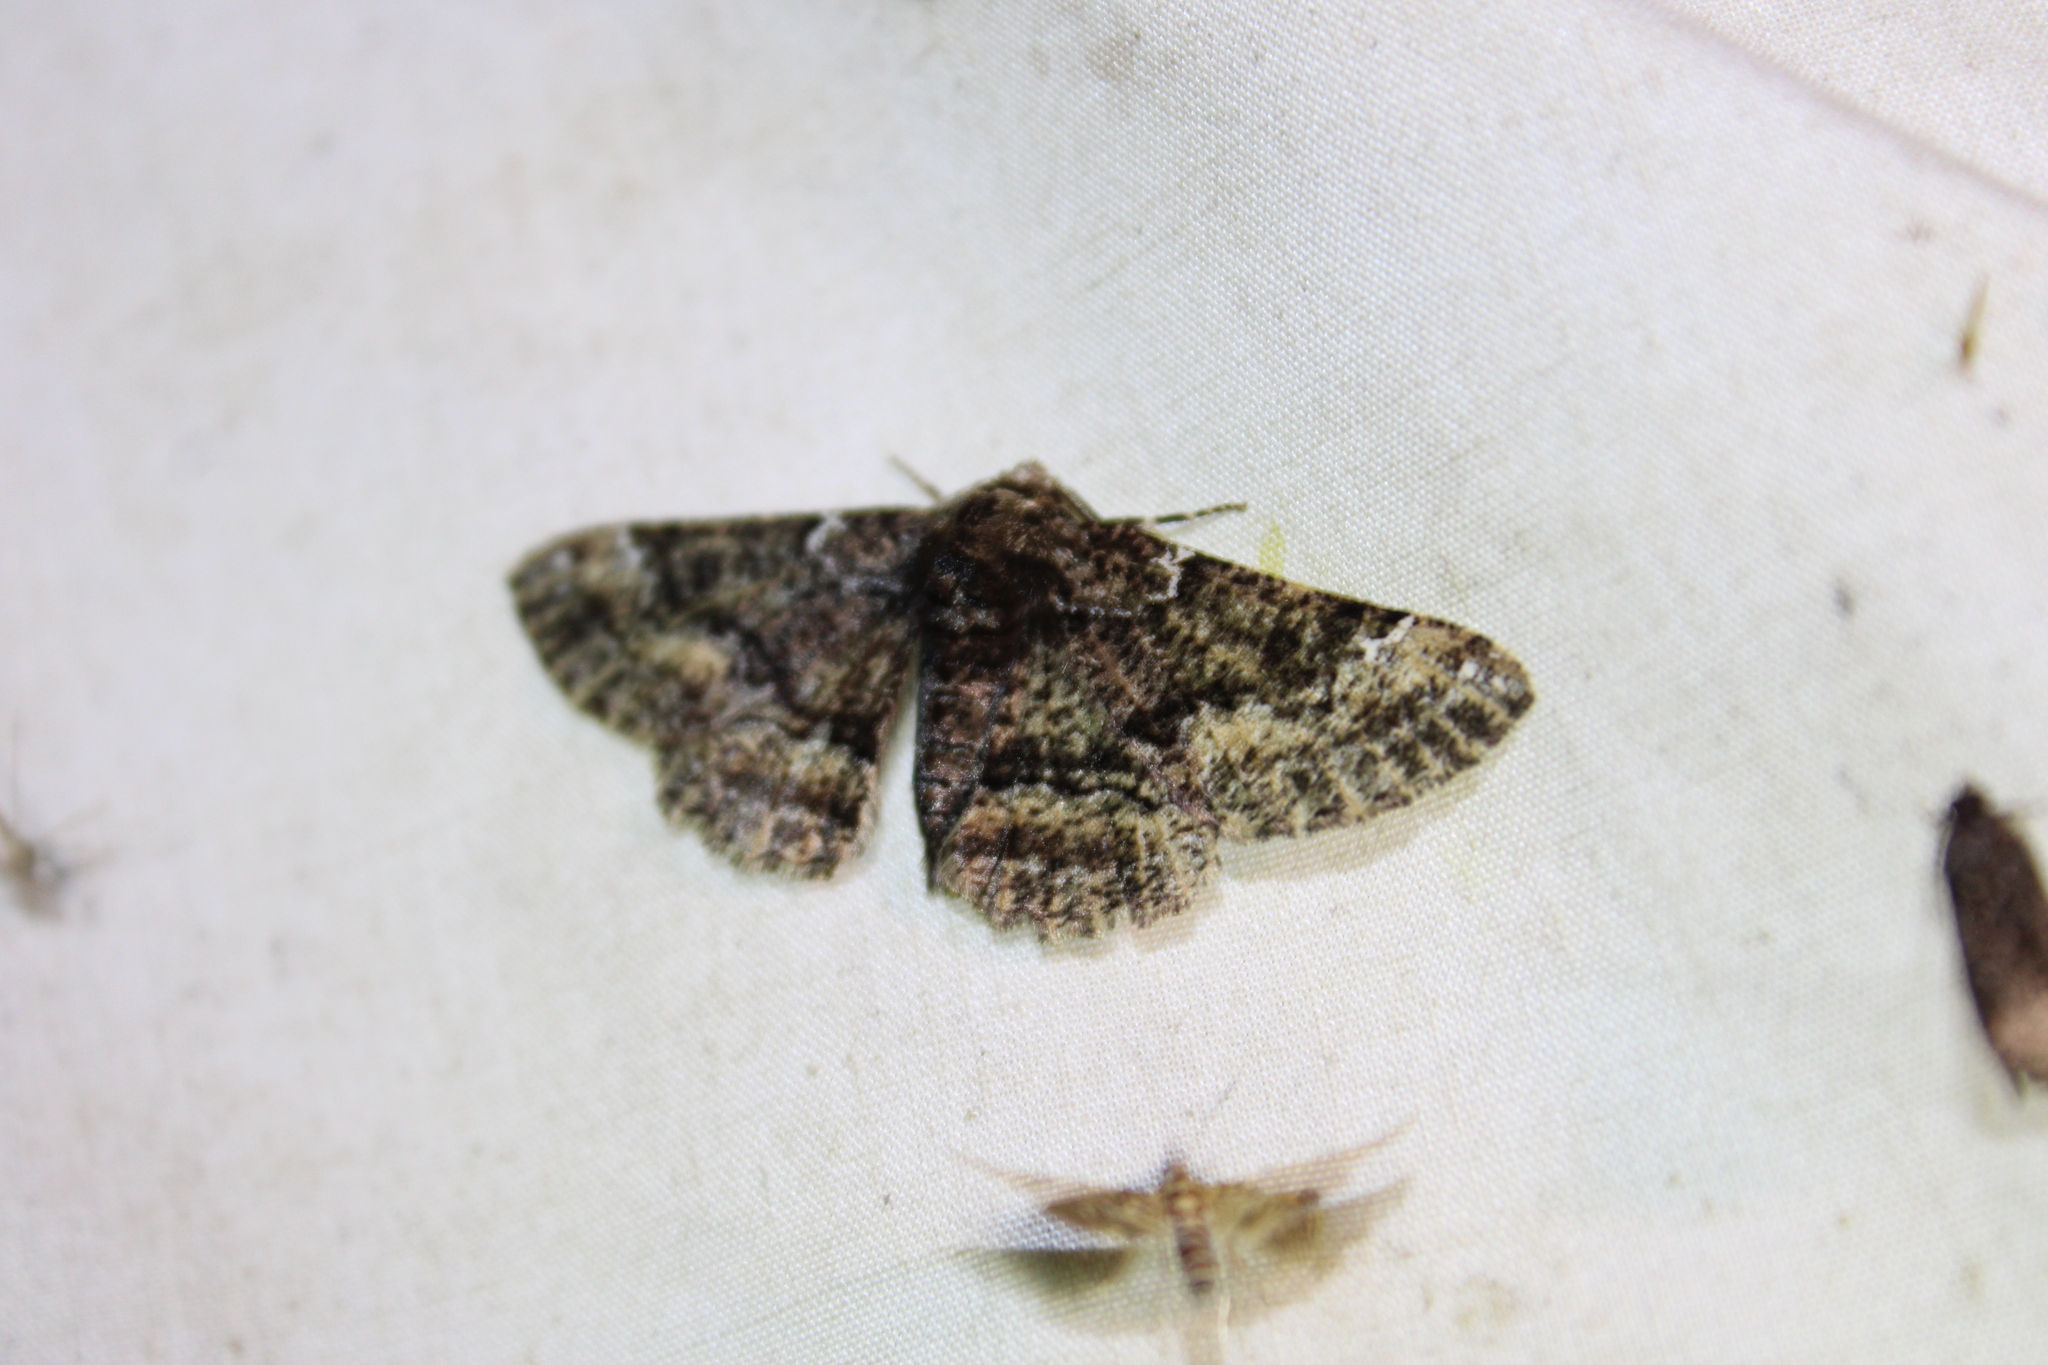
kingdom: Animalia
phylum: Arthropoda
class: Insecta
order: Lepidoptera
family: Geometridae
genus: Phaeoura
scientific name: Phaeoura quernaria
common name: Oak beauty
